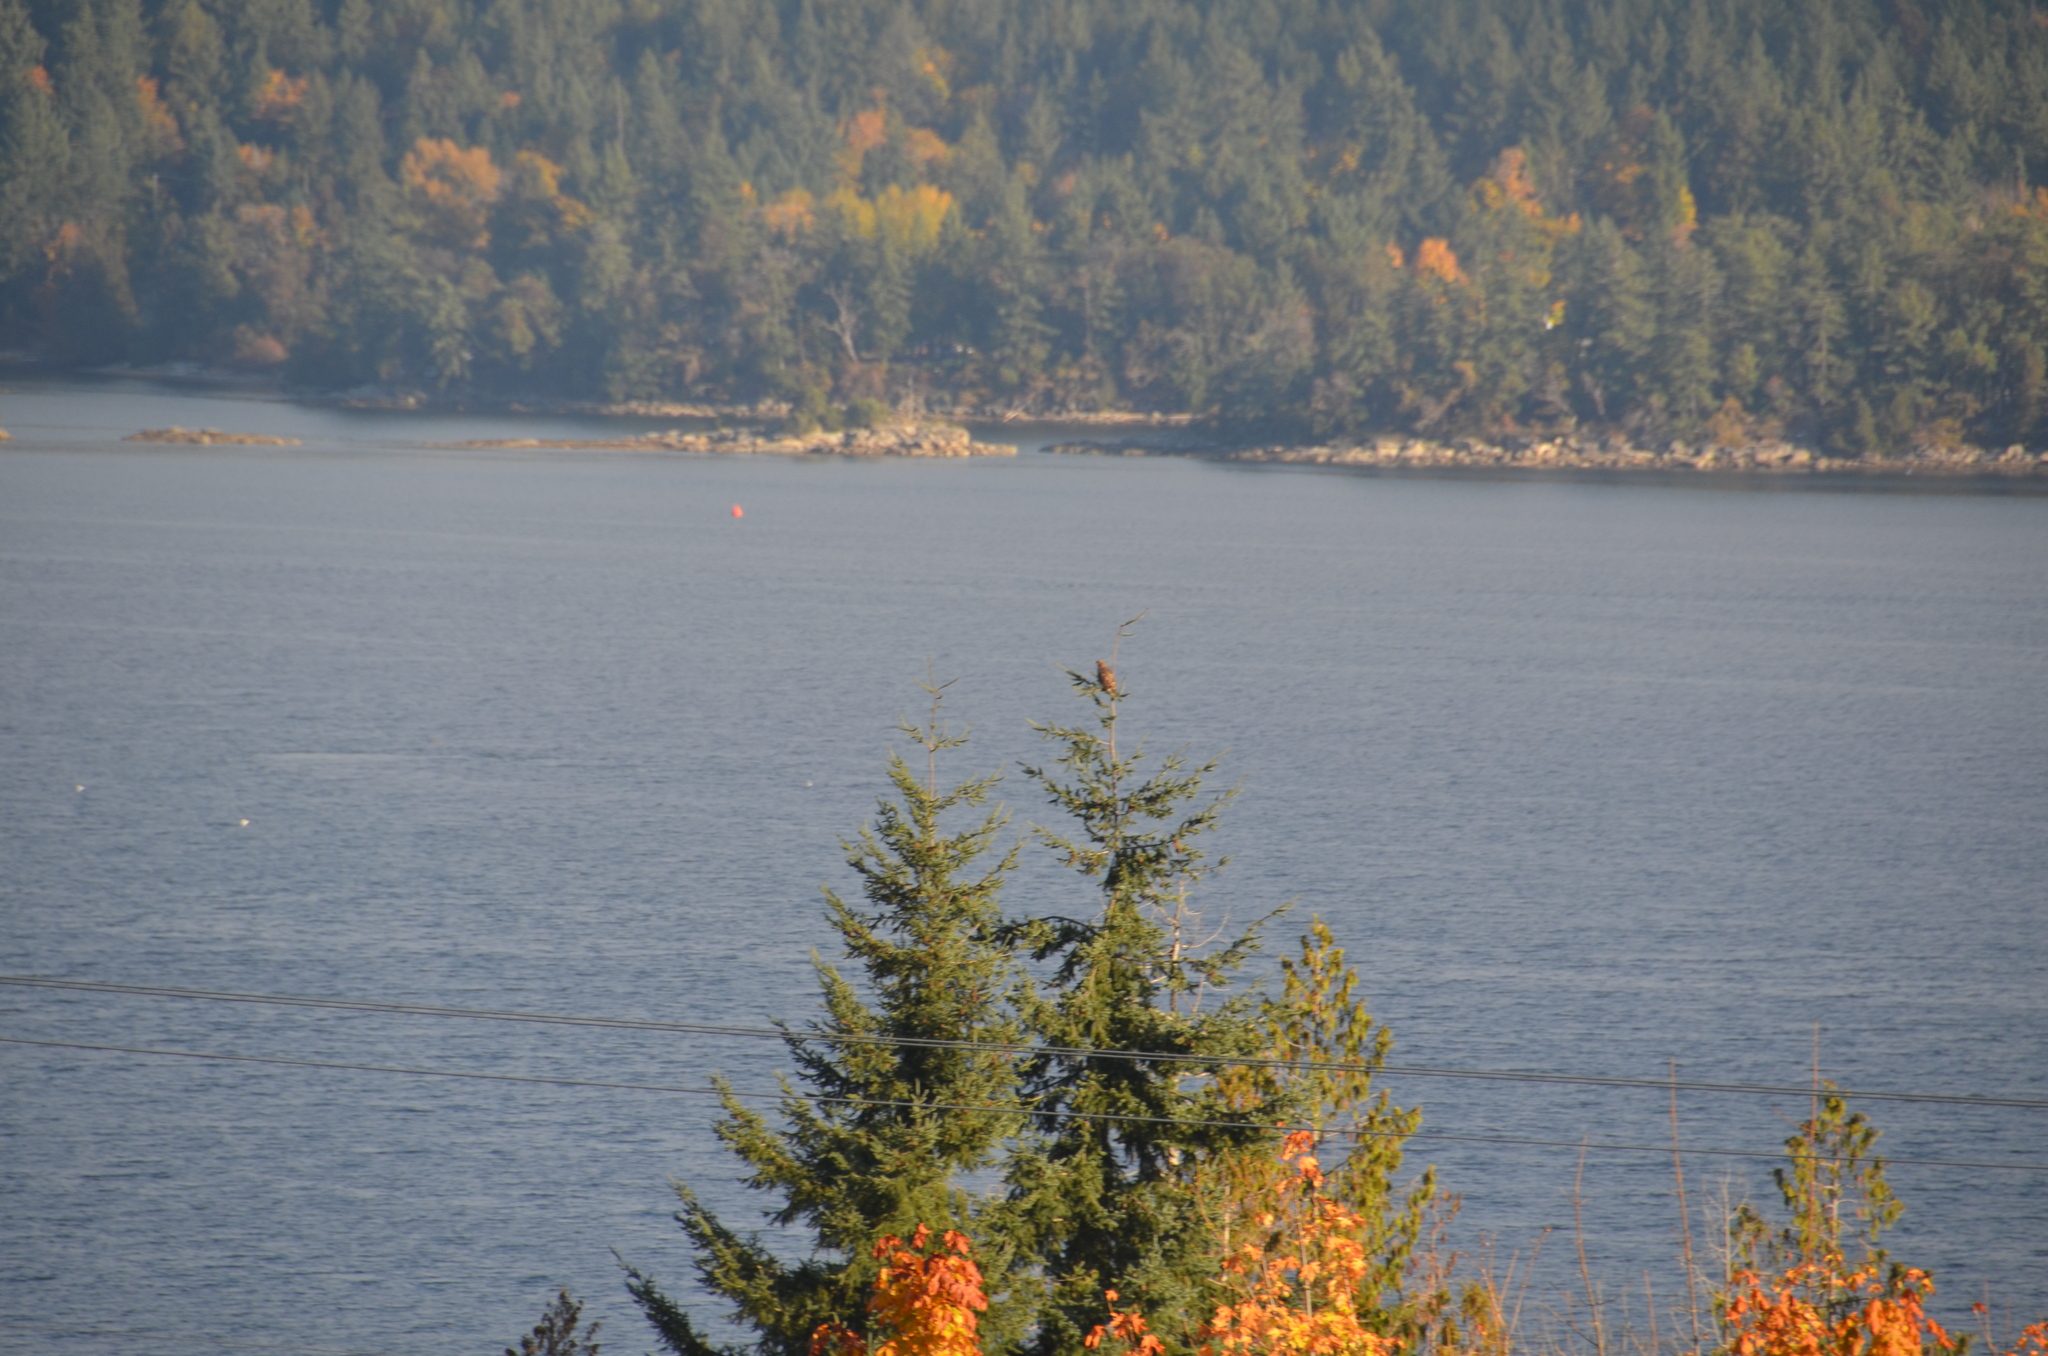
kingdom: Animalia
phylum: Chordata
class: Aves
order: Accipitriformes
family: Accipitridae
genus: Buteo
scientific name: Buteo jamaicensis
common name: Red-tailed hawk
